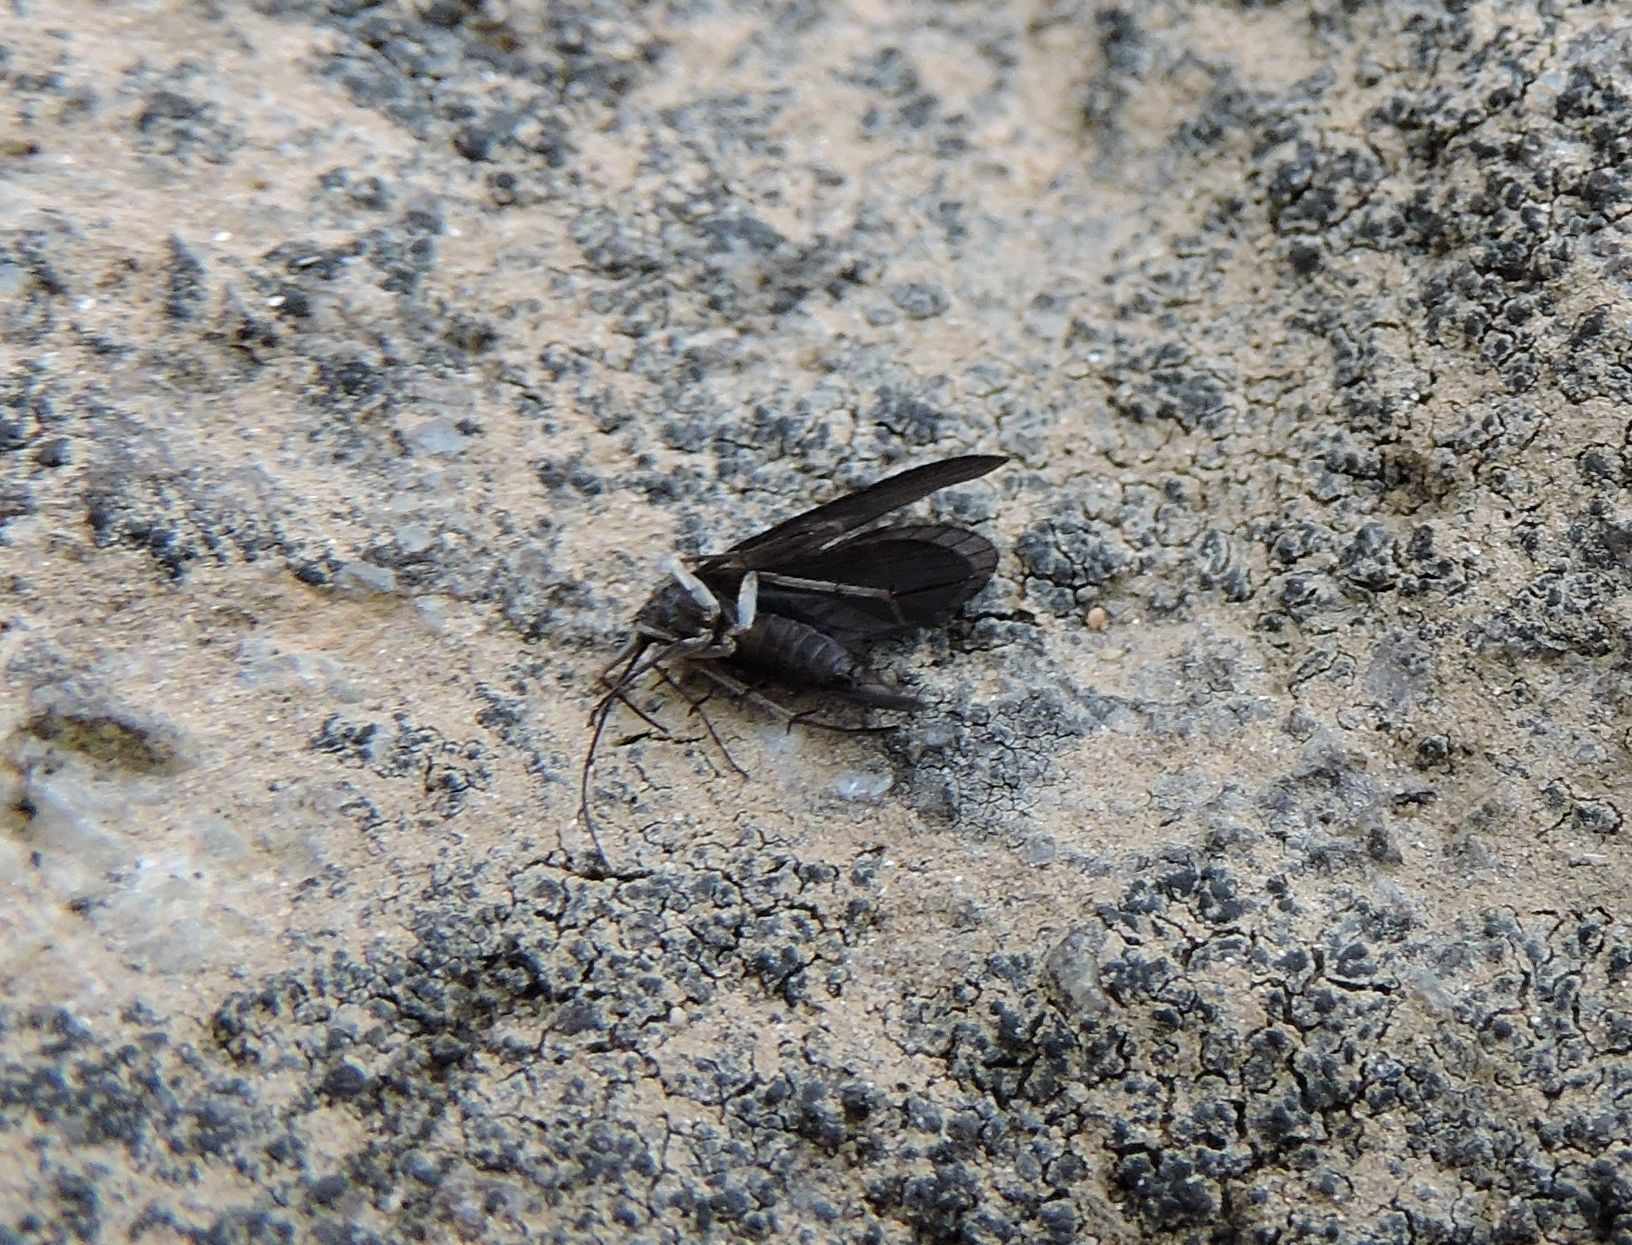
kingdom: Animalia
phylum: Arthropoda
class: Insecta
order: Odonata
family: Coenagrionidae
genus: Argia
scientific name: Argia moesta
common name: Powdered dancer
